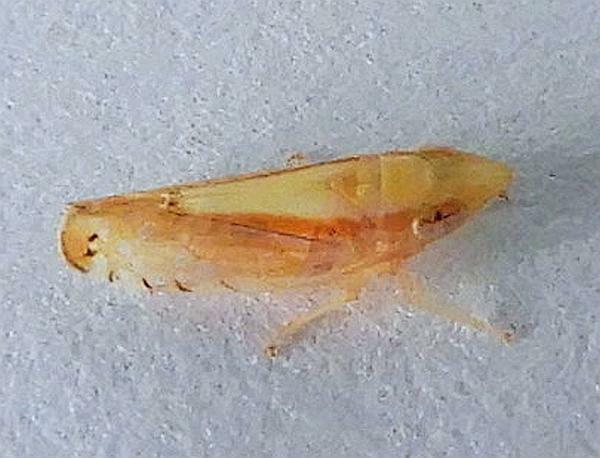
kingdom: Animalia
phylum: Arthropoda
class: Insecta
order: Hemiptera
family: Cicadellidae
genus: Scaphytopius
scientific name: Scaphytopius elegans
